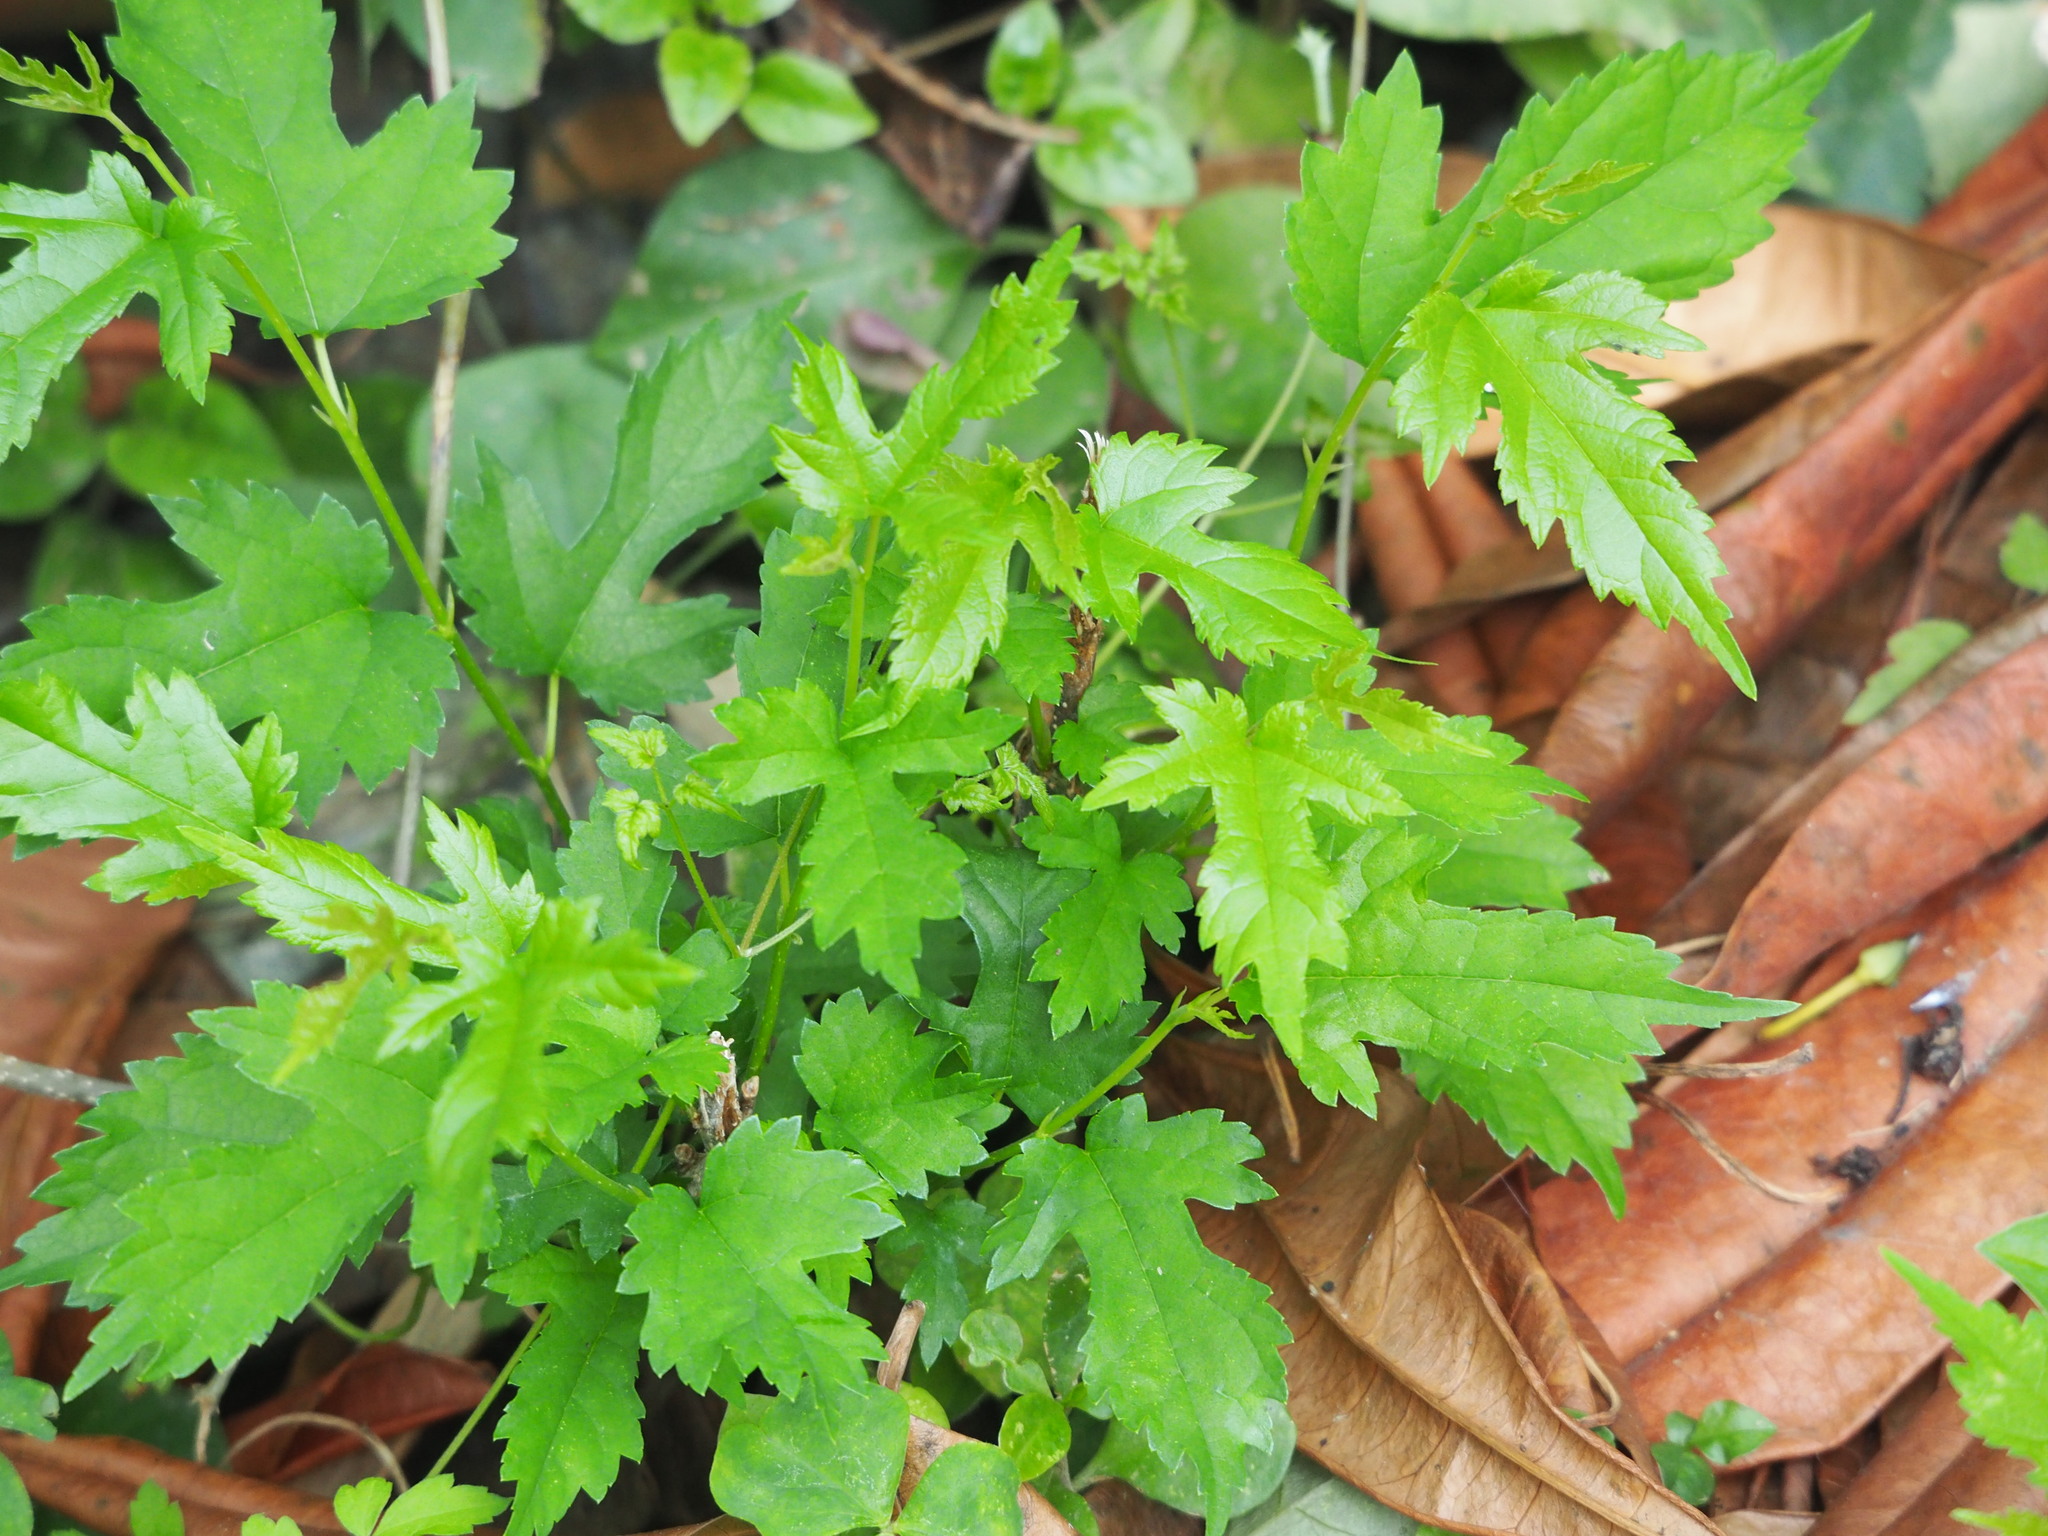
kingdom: Plantae
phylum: Tracheophyta
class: Magnoliopsida
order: Rosales
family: Moraceae
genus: Morus
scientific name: Morus indica
